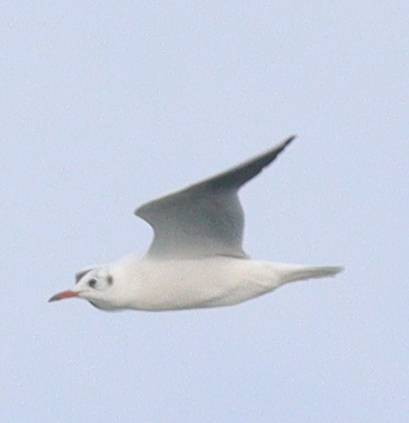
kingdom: Animalia
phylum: Chordata
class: Aves
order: Charadriiformes
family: Laridae
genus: Chroicocephalus
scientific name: Chroicocephalus ridibundus
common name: Black-headed gull
